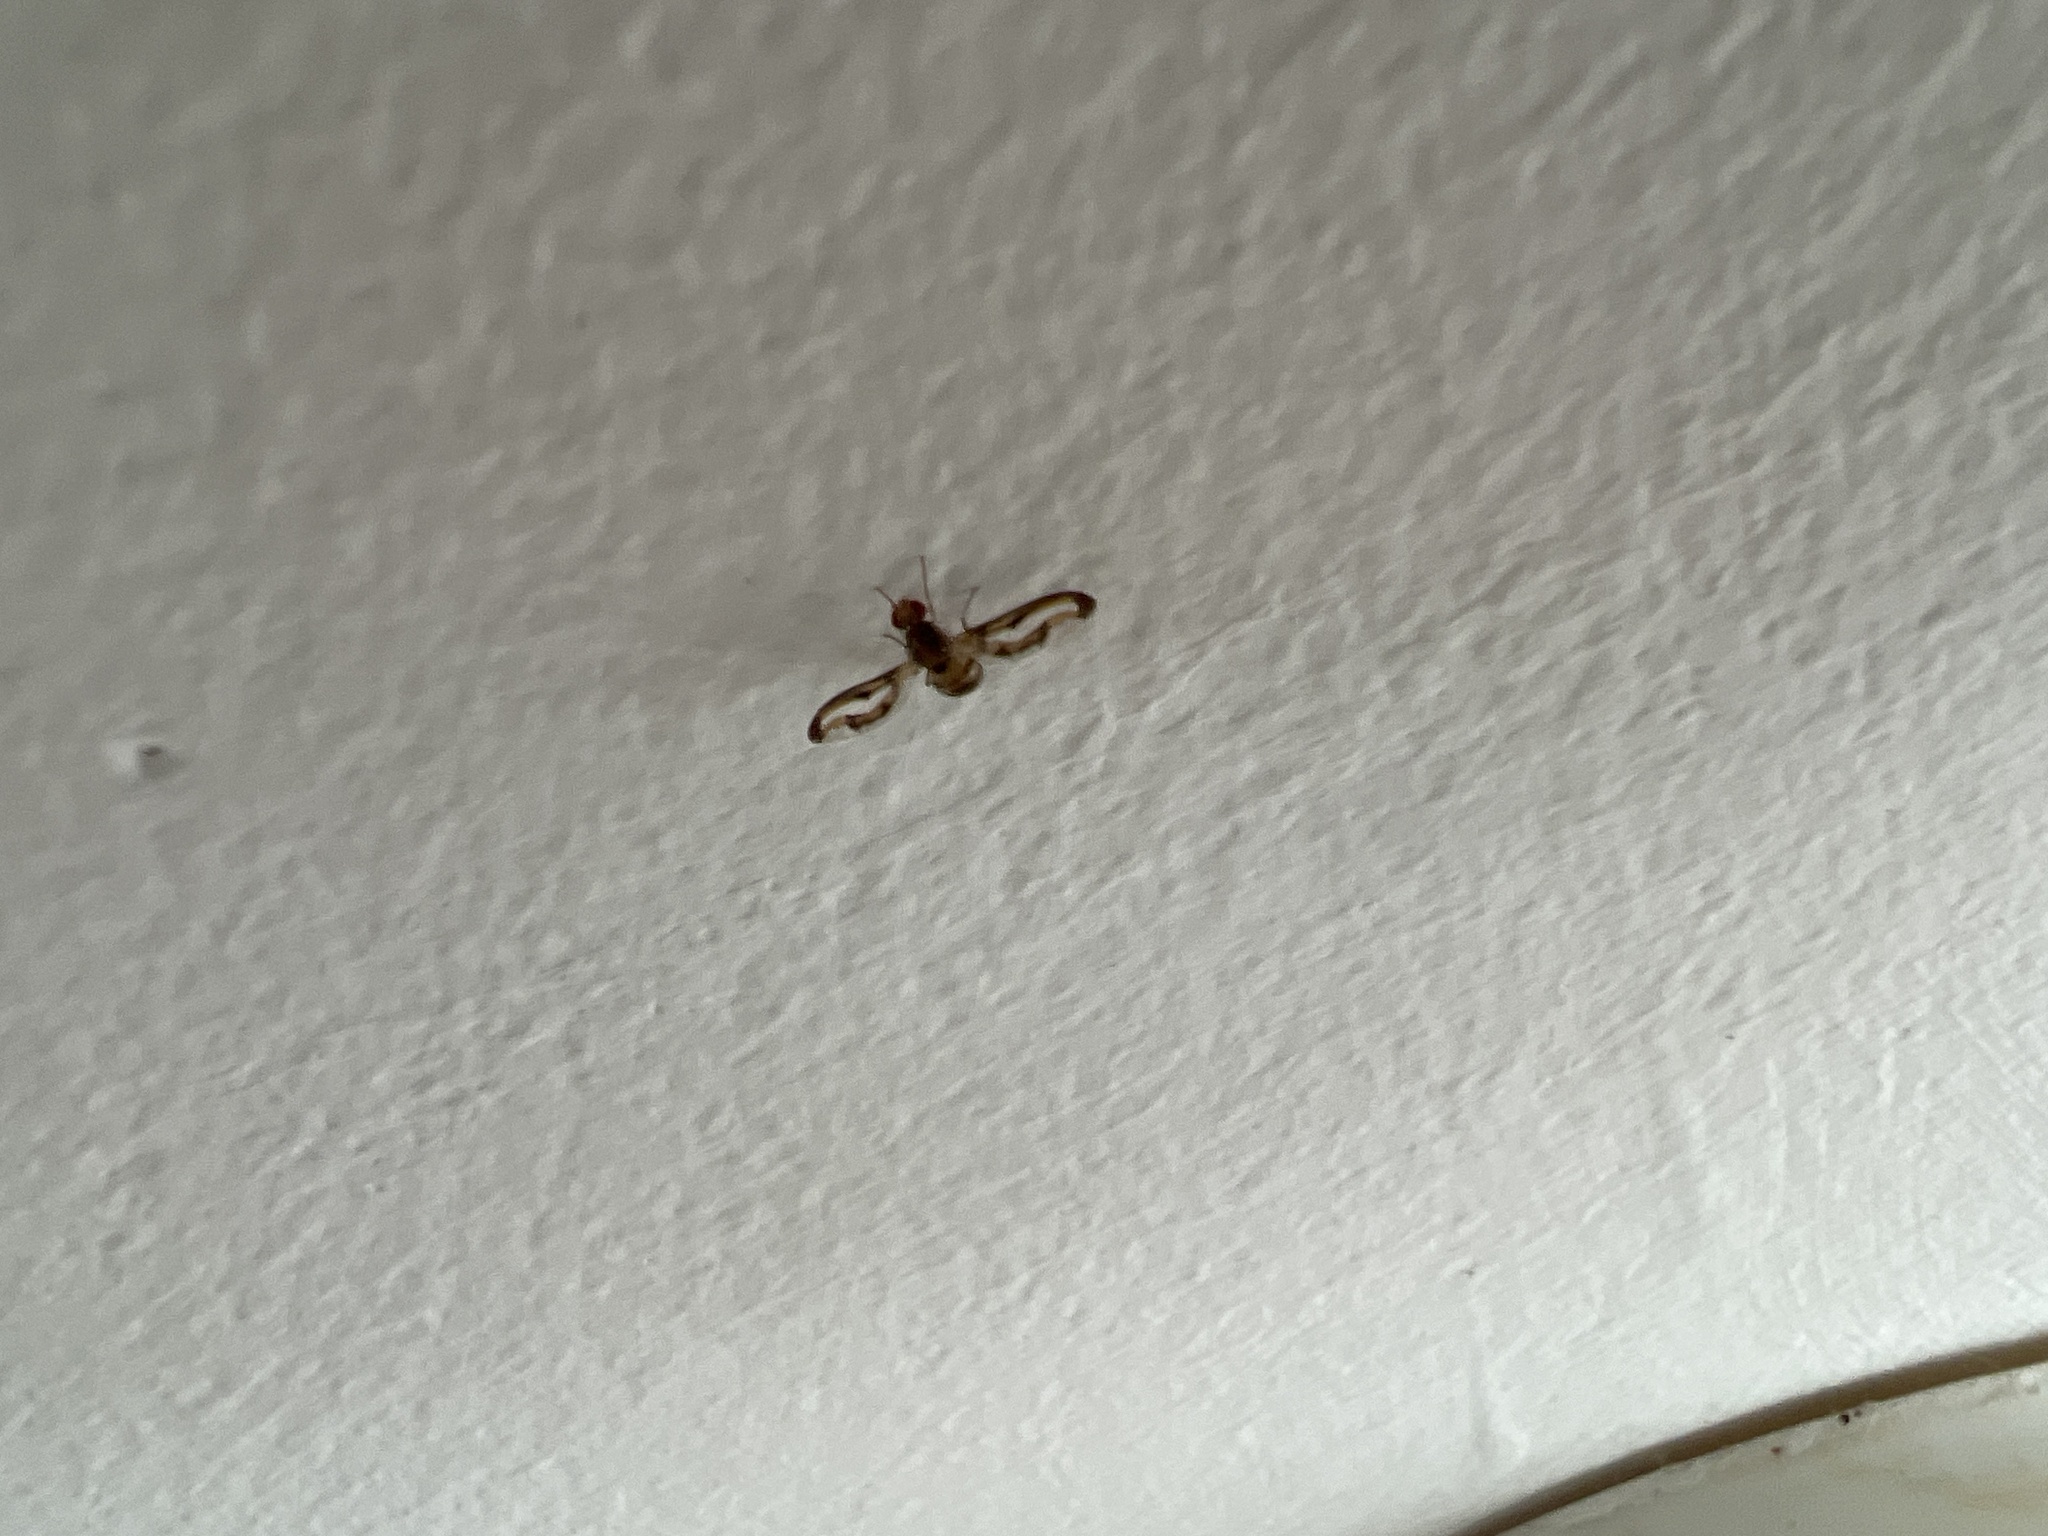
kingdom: Animalia
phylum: Arthropoda
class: Insecta
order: Diptera
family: Pallopteridae
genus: Toxonevra
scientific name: Toxonevra muliebris
